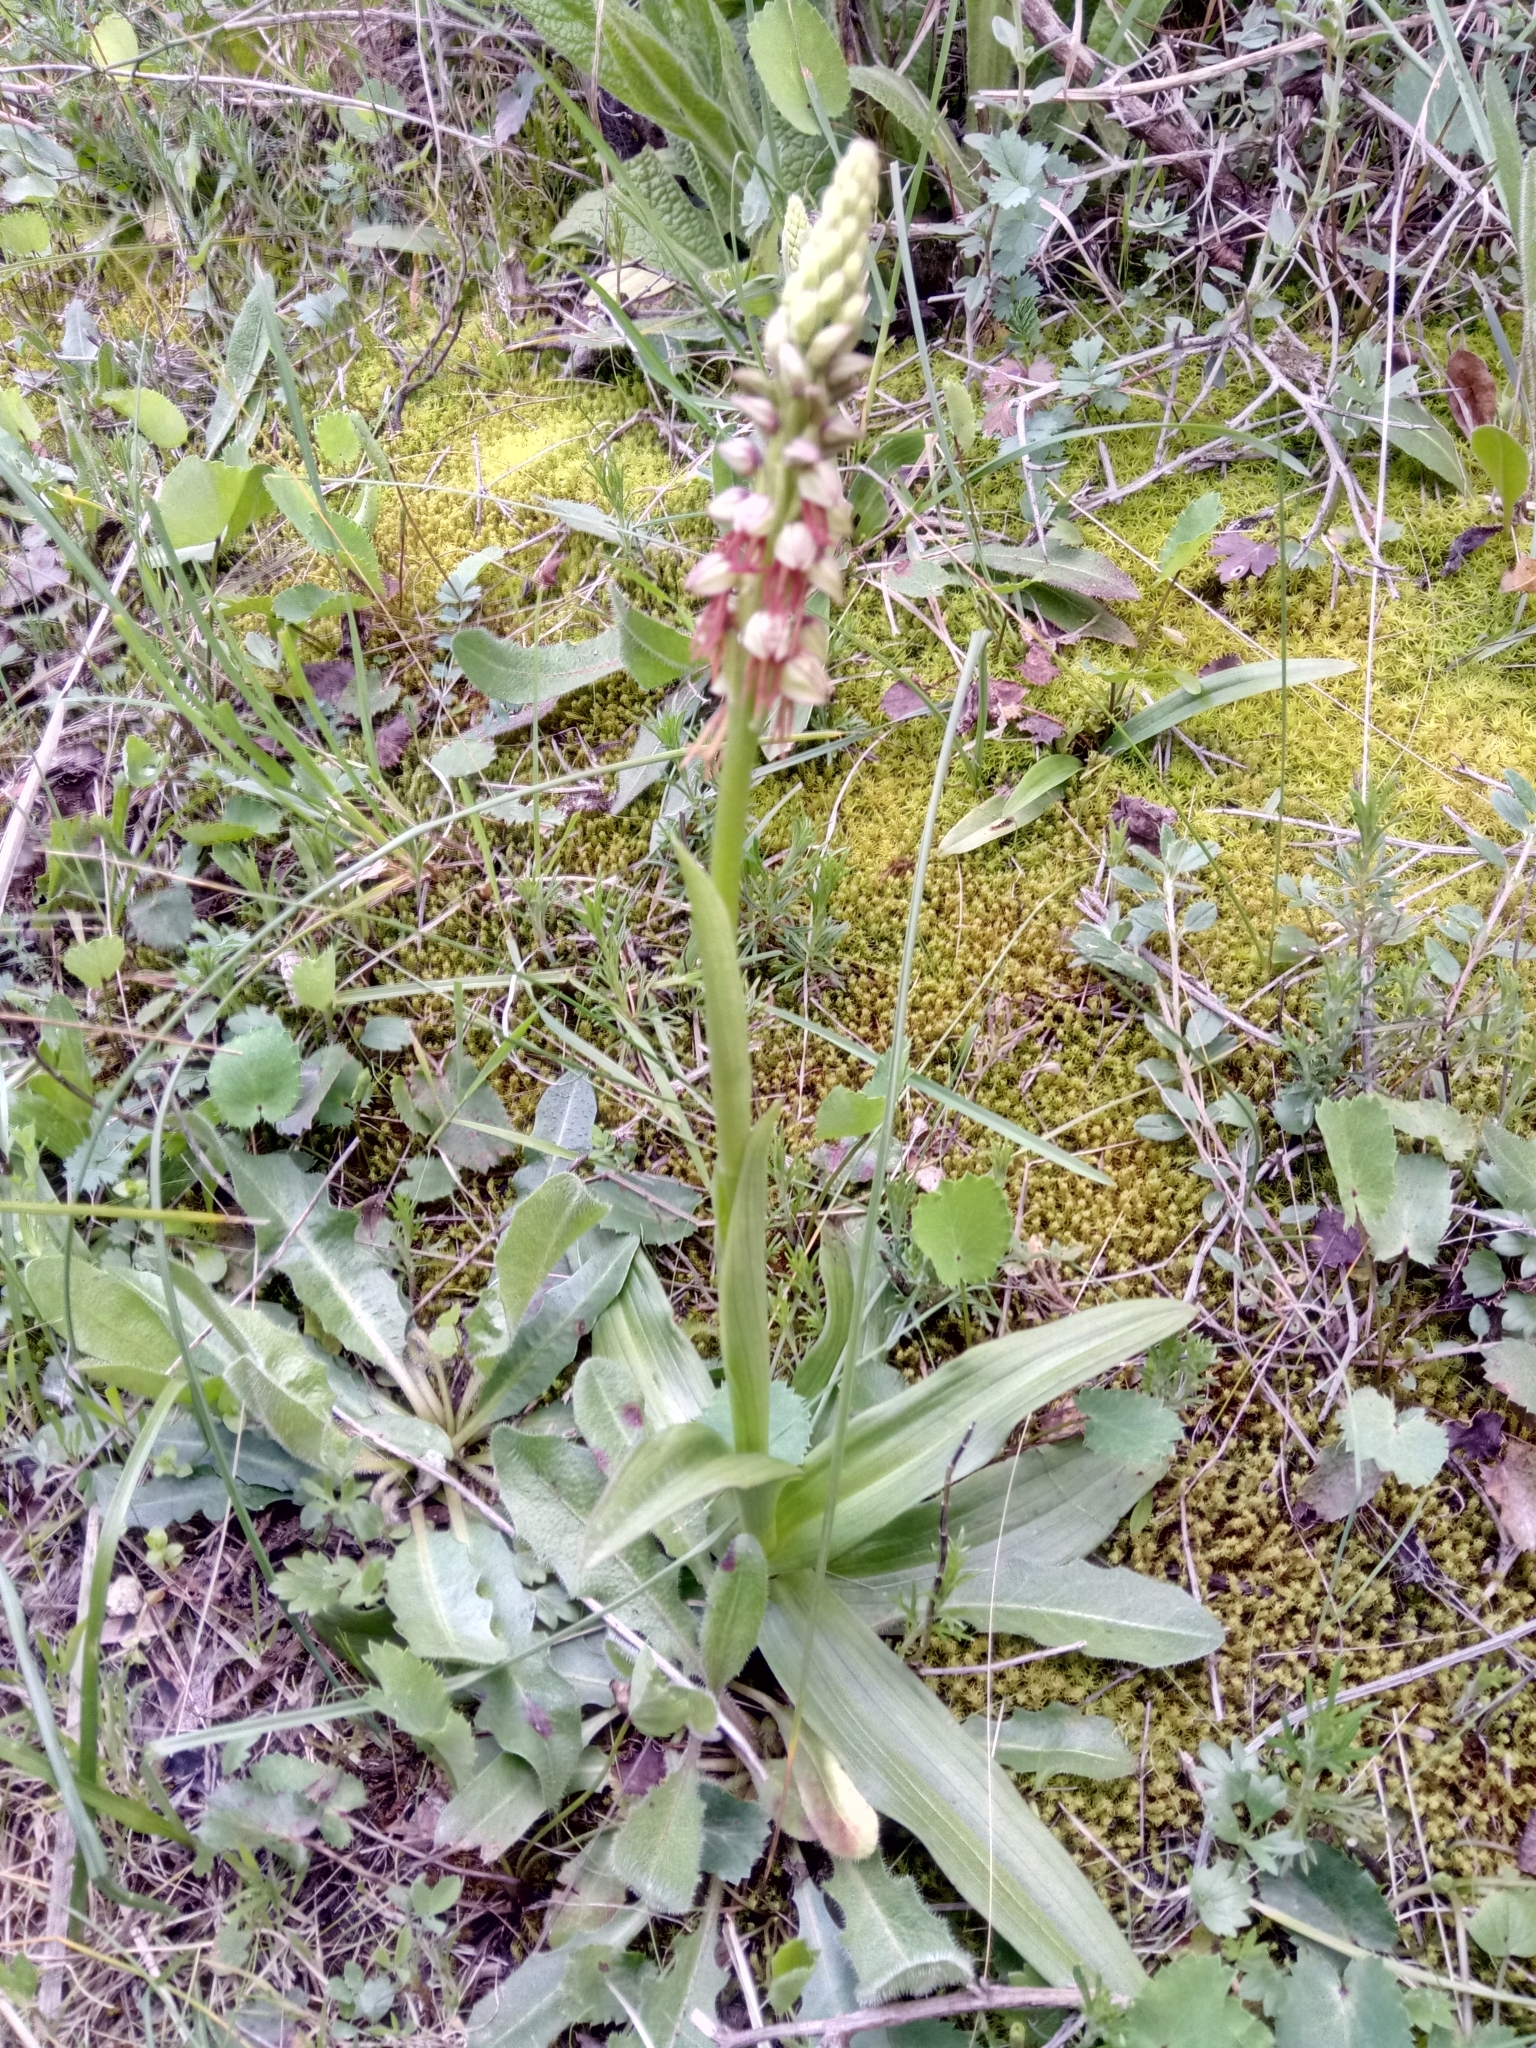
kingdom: Plantae
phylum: Tracheophyta
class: Liliopsida
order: Asparagales
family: Orchidaceae
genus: Orchis
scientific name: Orchis anthropophora
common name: Man orchid
